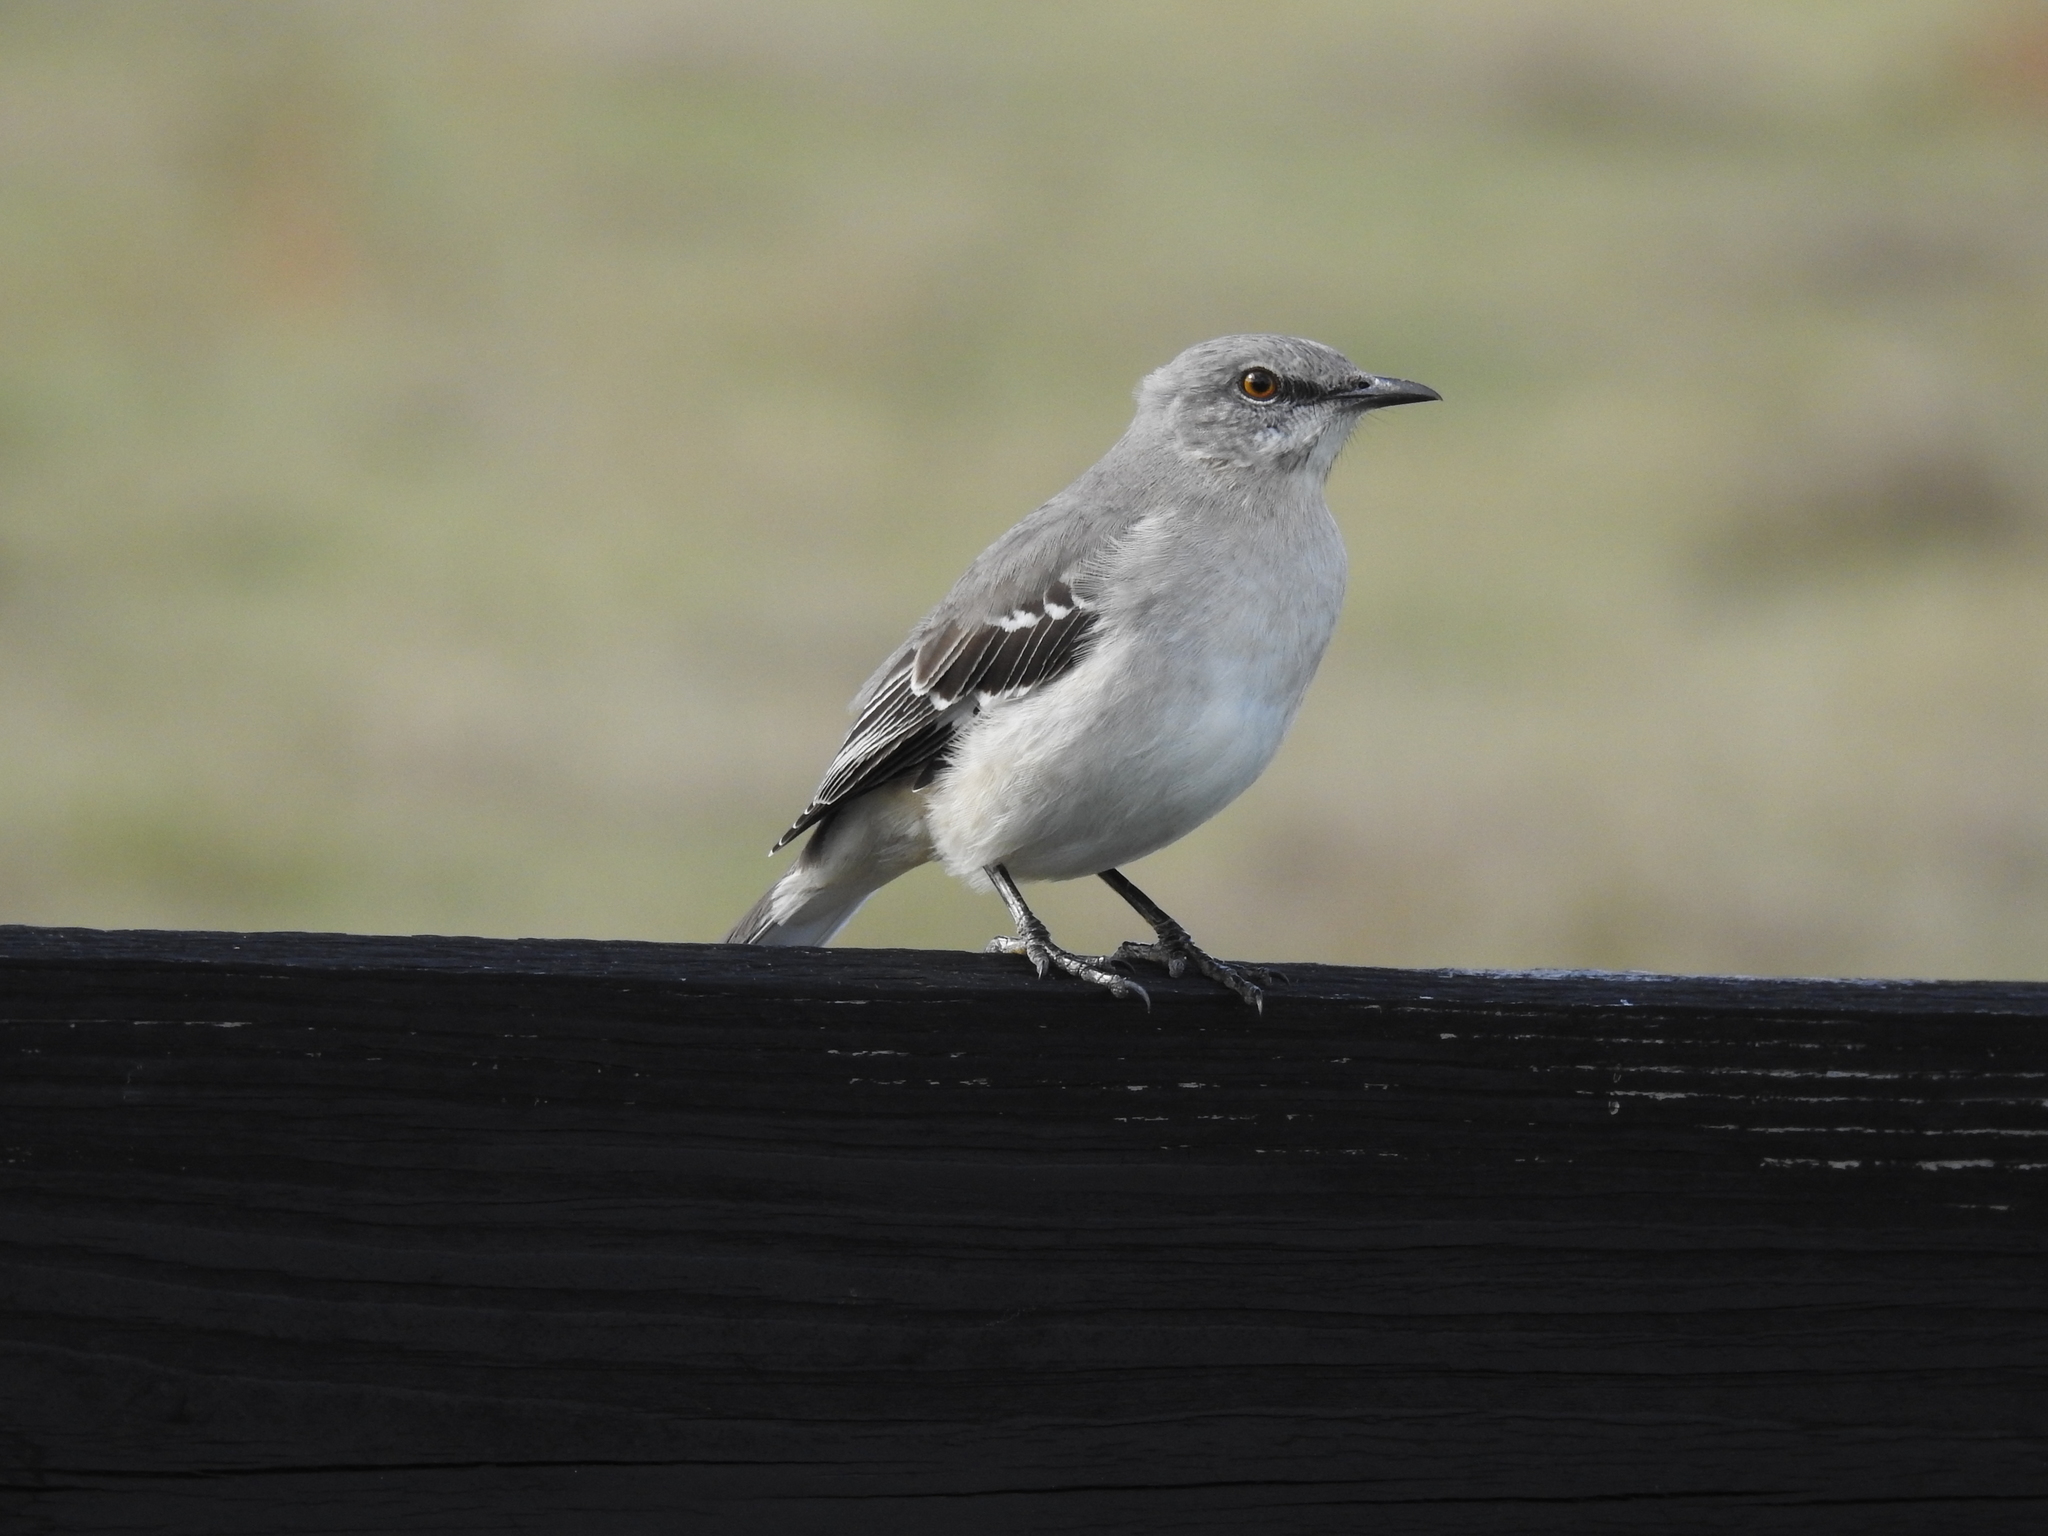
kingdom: Animalia
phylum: Chordata
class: Aves
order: Passeriformes
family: Mimidae
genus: Mimus
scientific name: Mimus polyglottos
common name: Northern mockingbird
